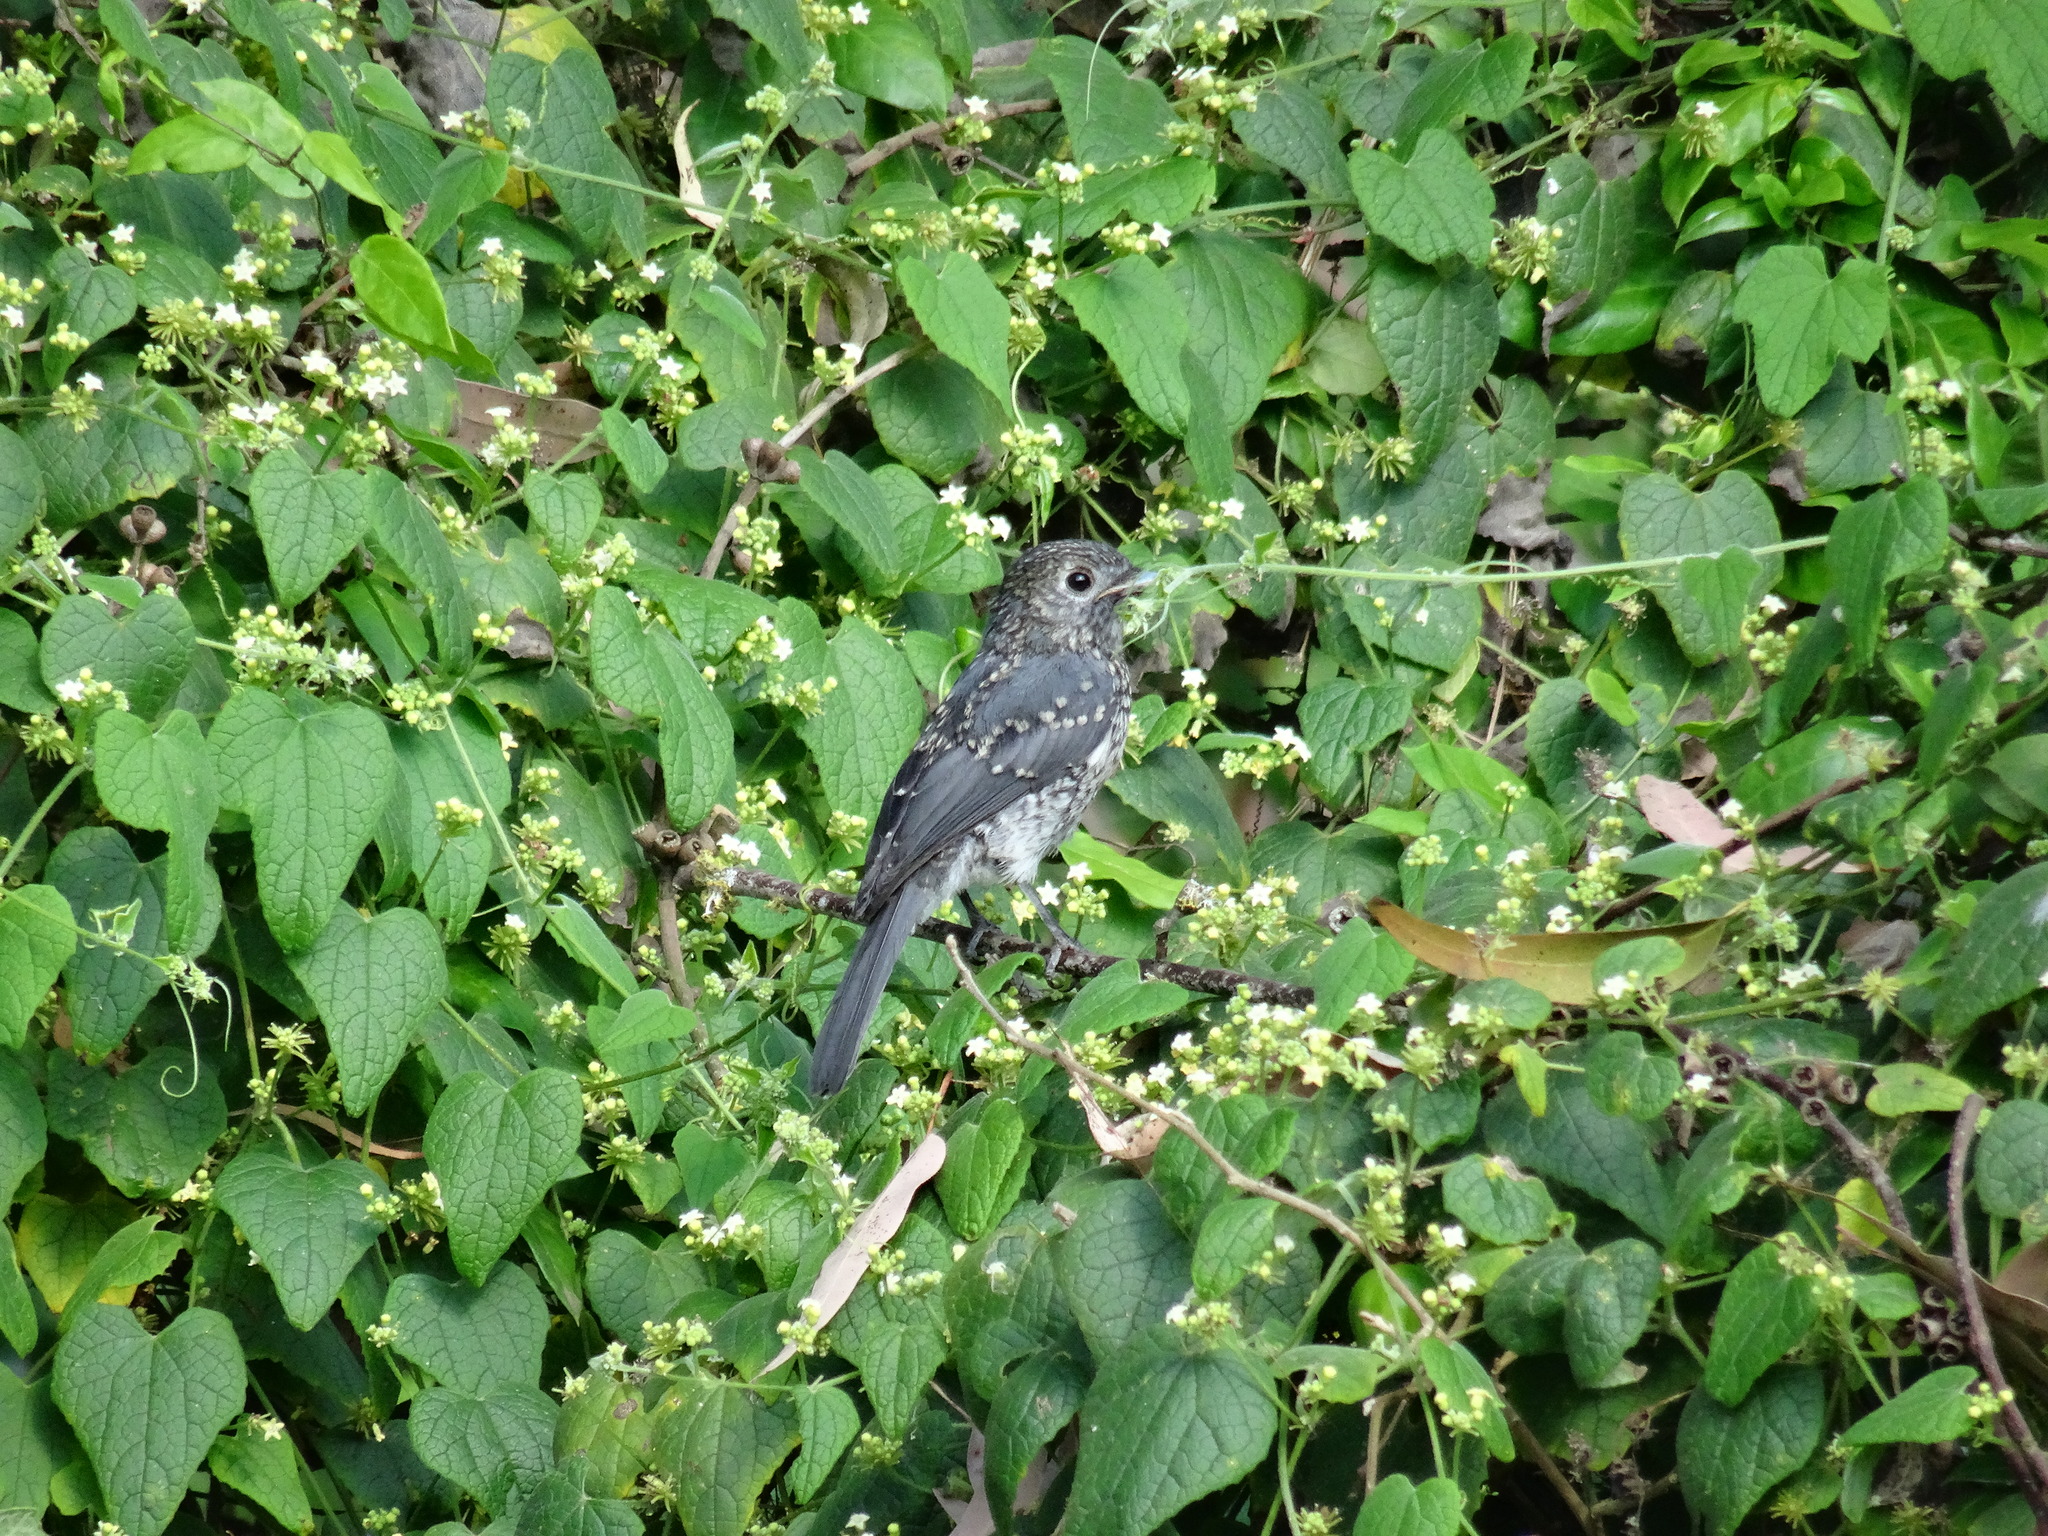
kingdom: Animalia
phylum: Chordata
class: Aves
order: Passeriformes
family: Muscicapidae
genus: Dioptrornis
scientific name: Dioptrornis fischeri
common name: White-eyed slaty flycatcher
